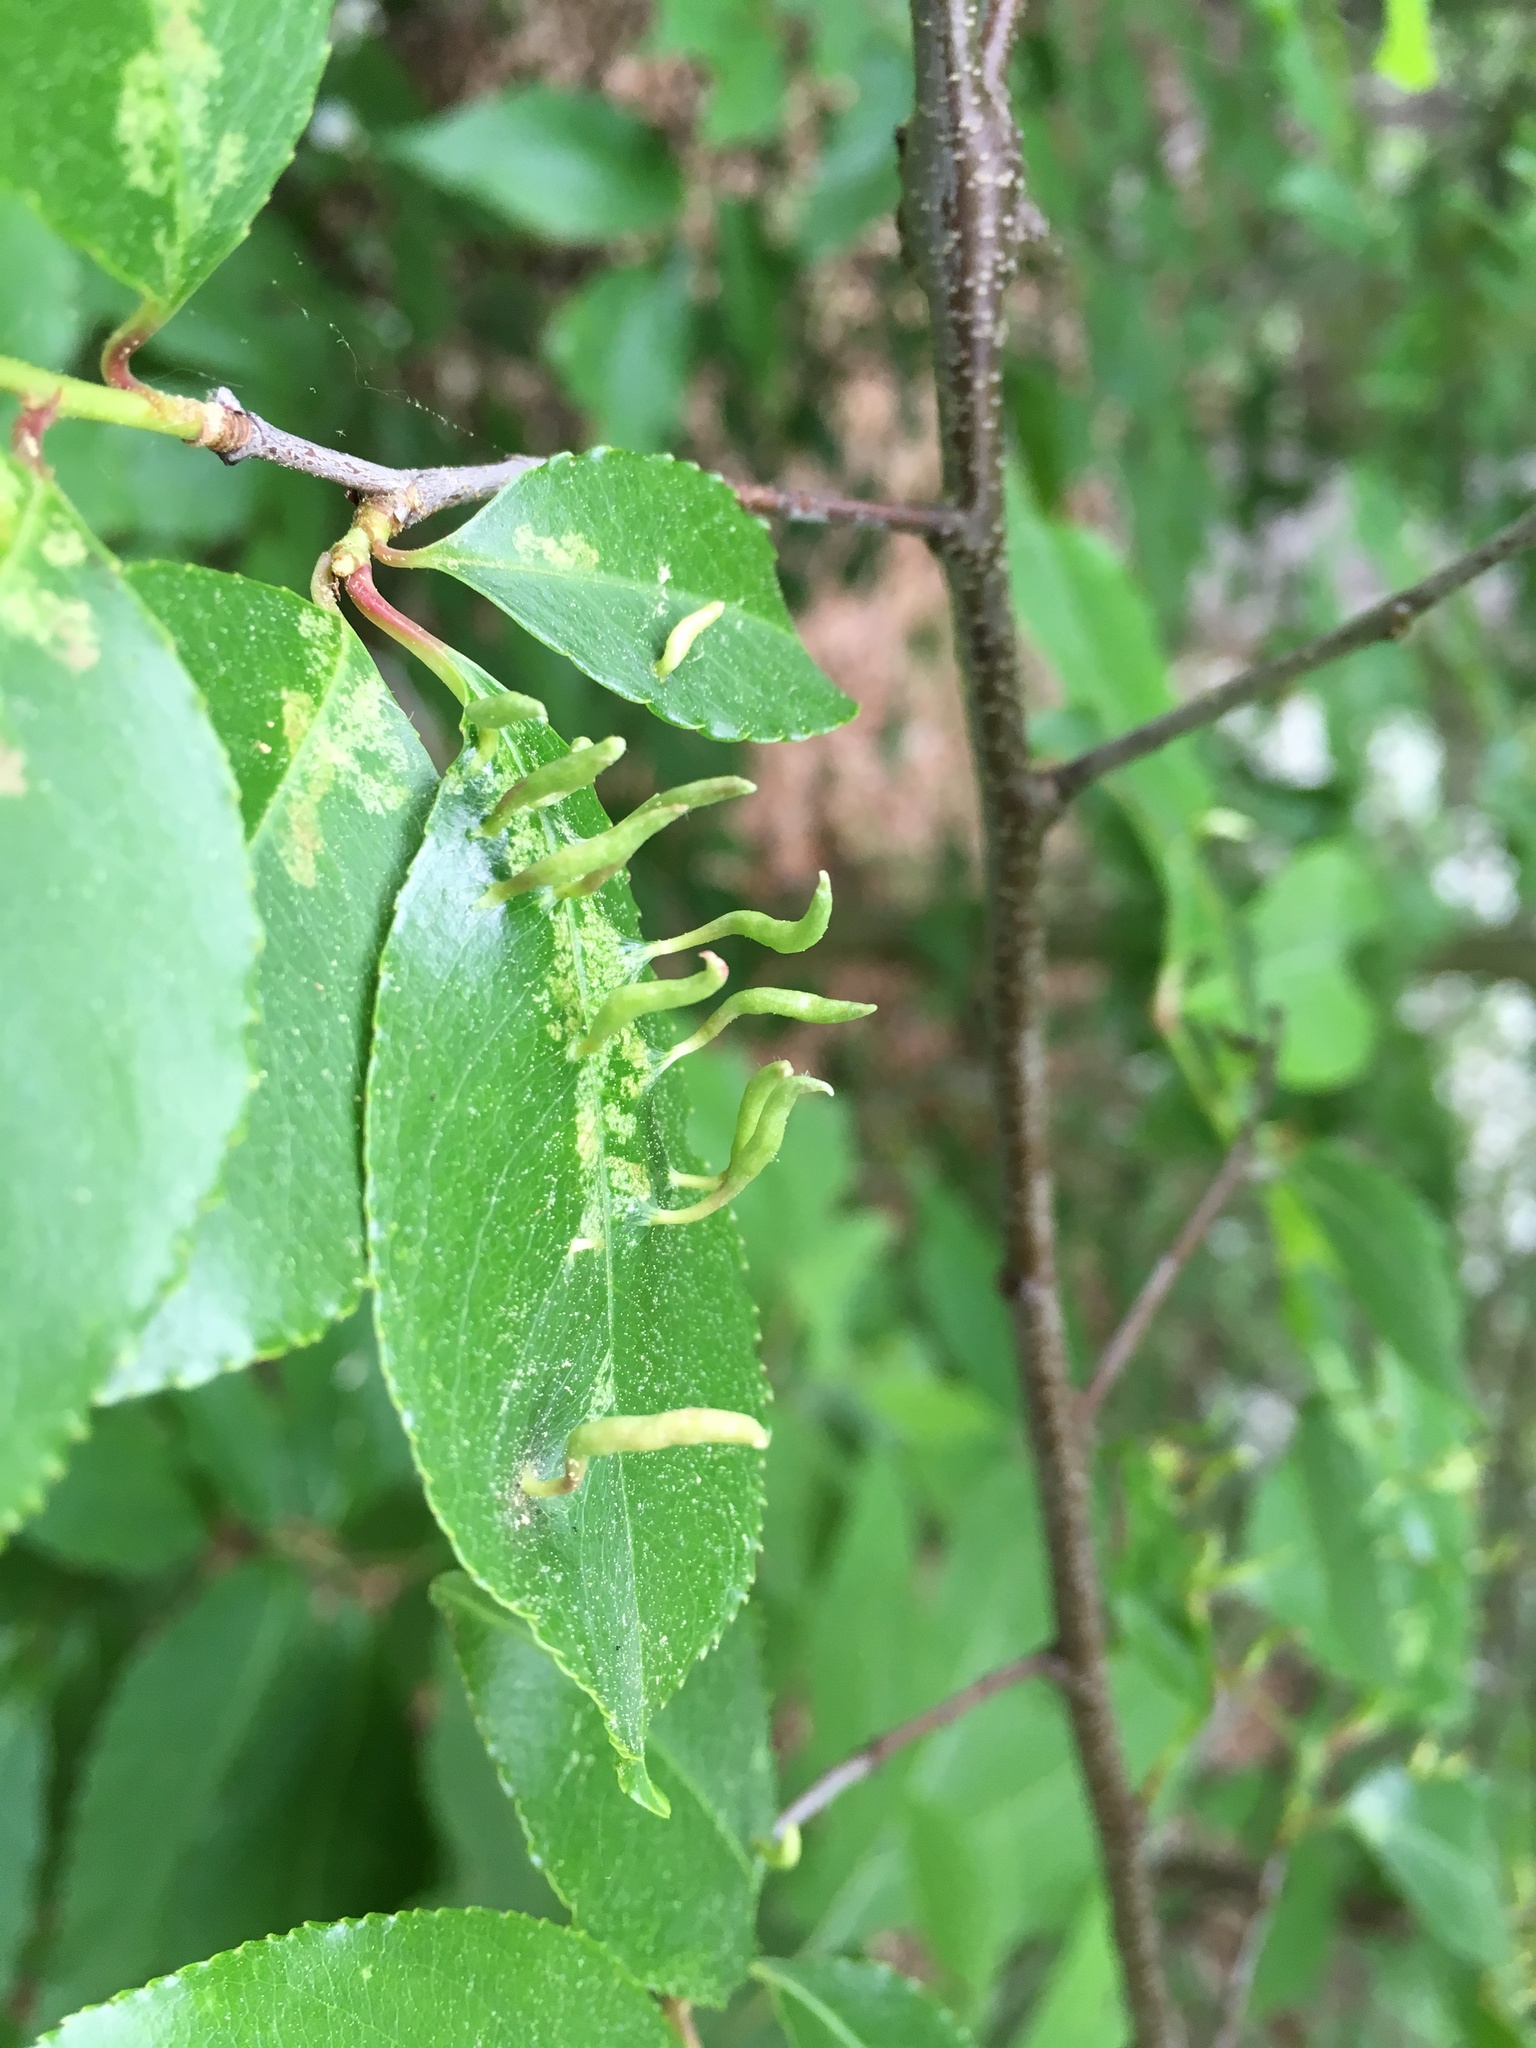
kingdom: Animalia
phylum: Arthropoda
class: Arachnida
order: Trombidiformes
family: Eriophyidae
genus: Eriophyes
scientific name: Eriophyes
